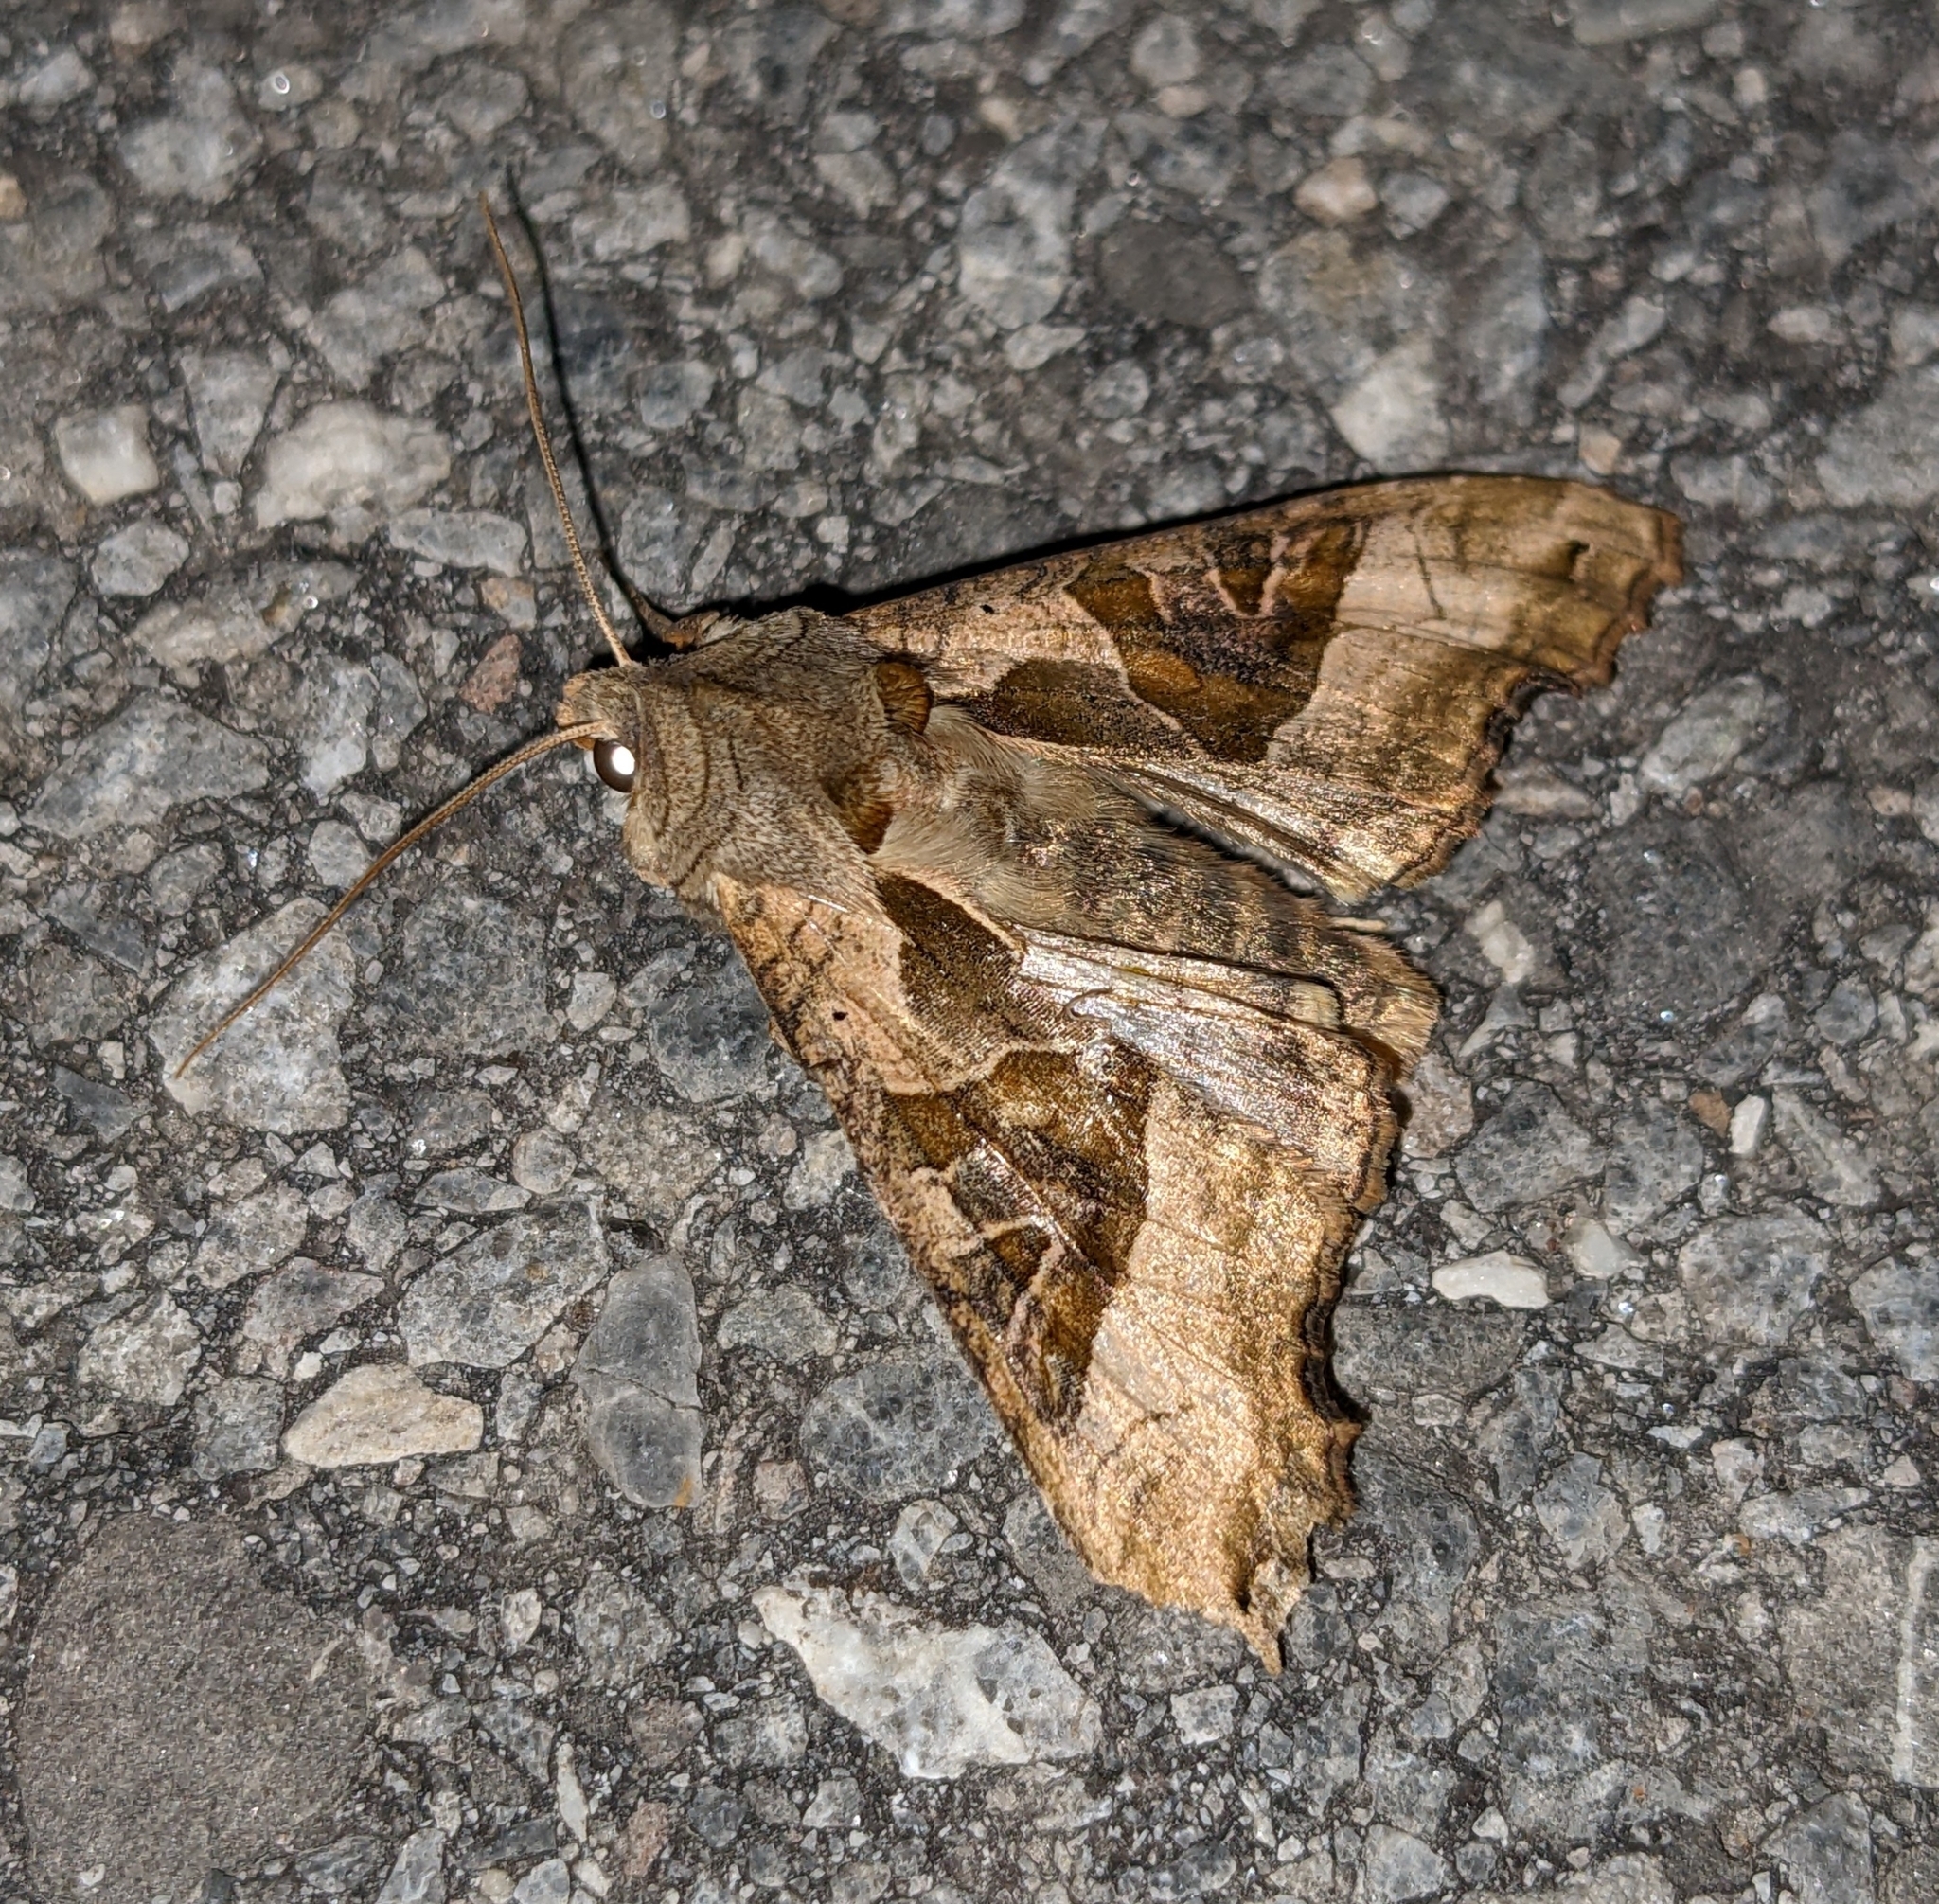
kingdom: Animalia
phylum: Arthropoda
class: Insecta
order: Lepidoptera
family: Noctuidae
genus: Phlogophora
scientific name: Phlogophora meticulosa
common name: Angle shades
